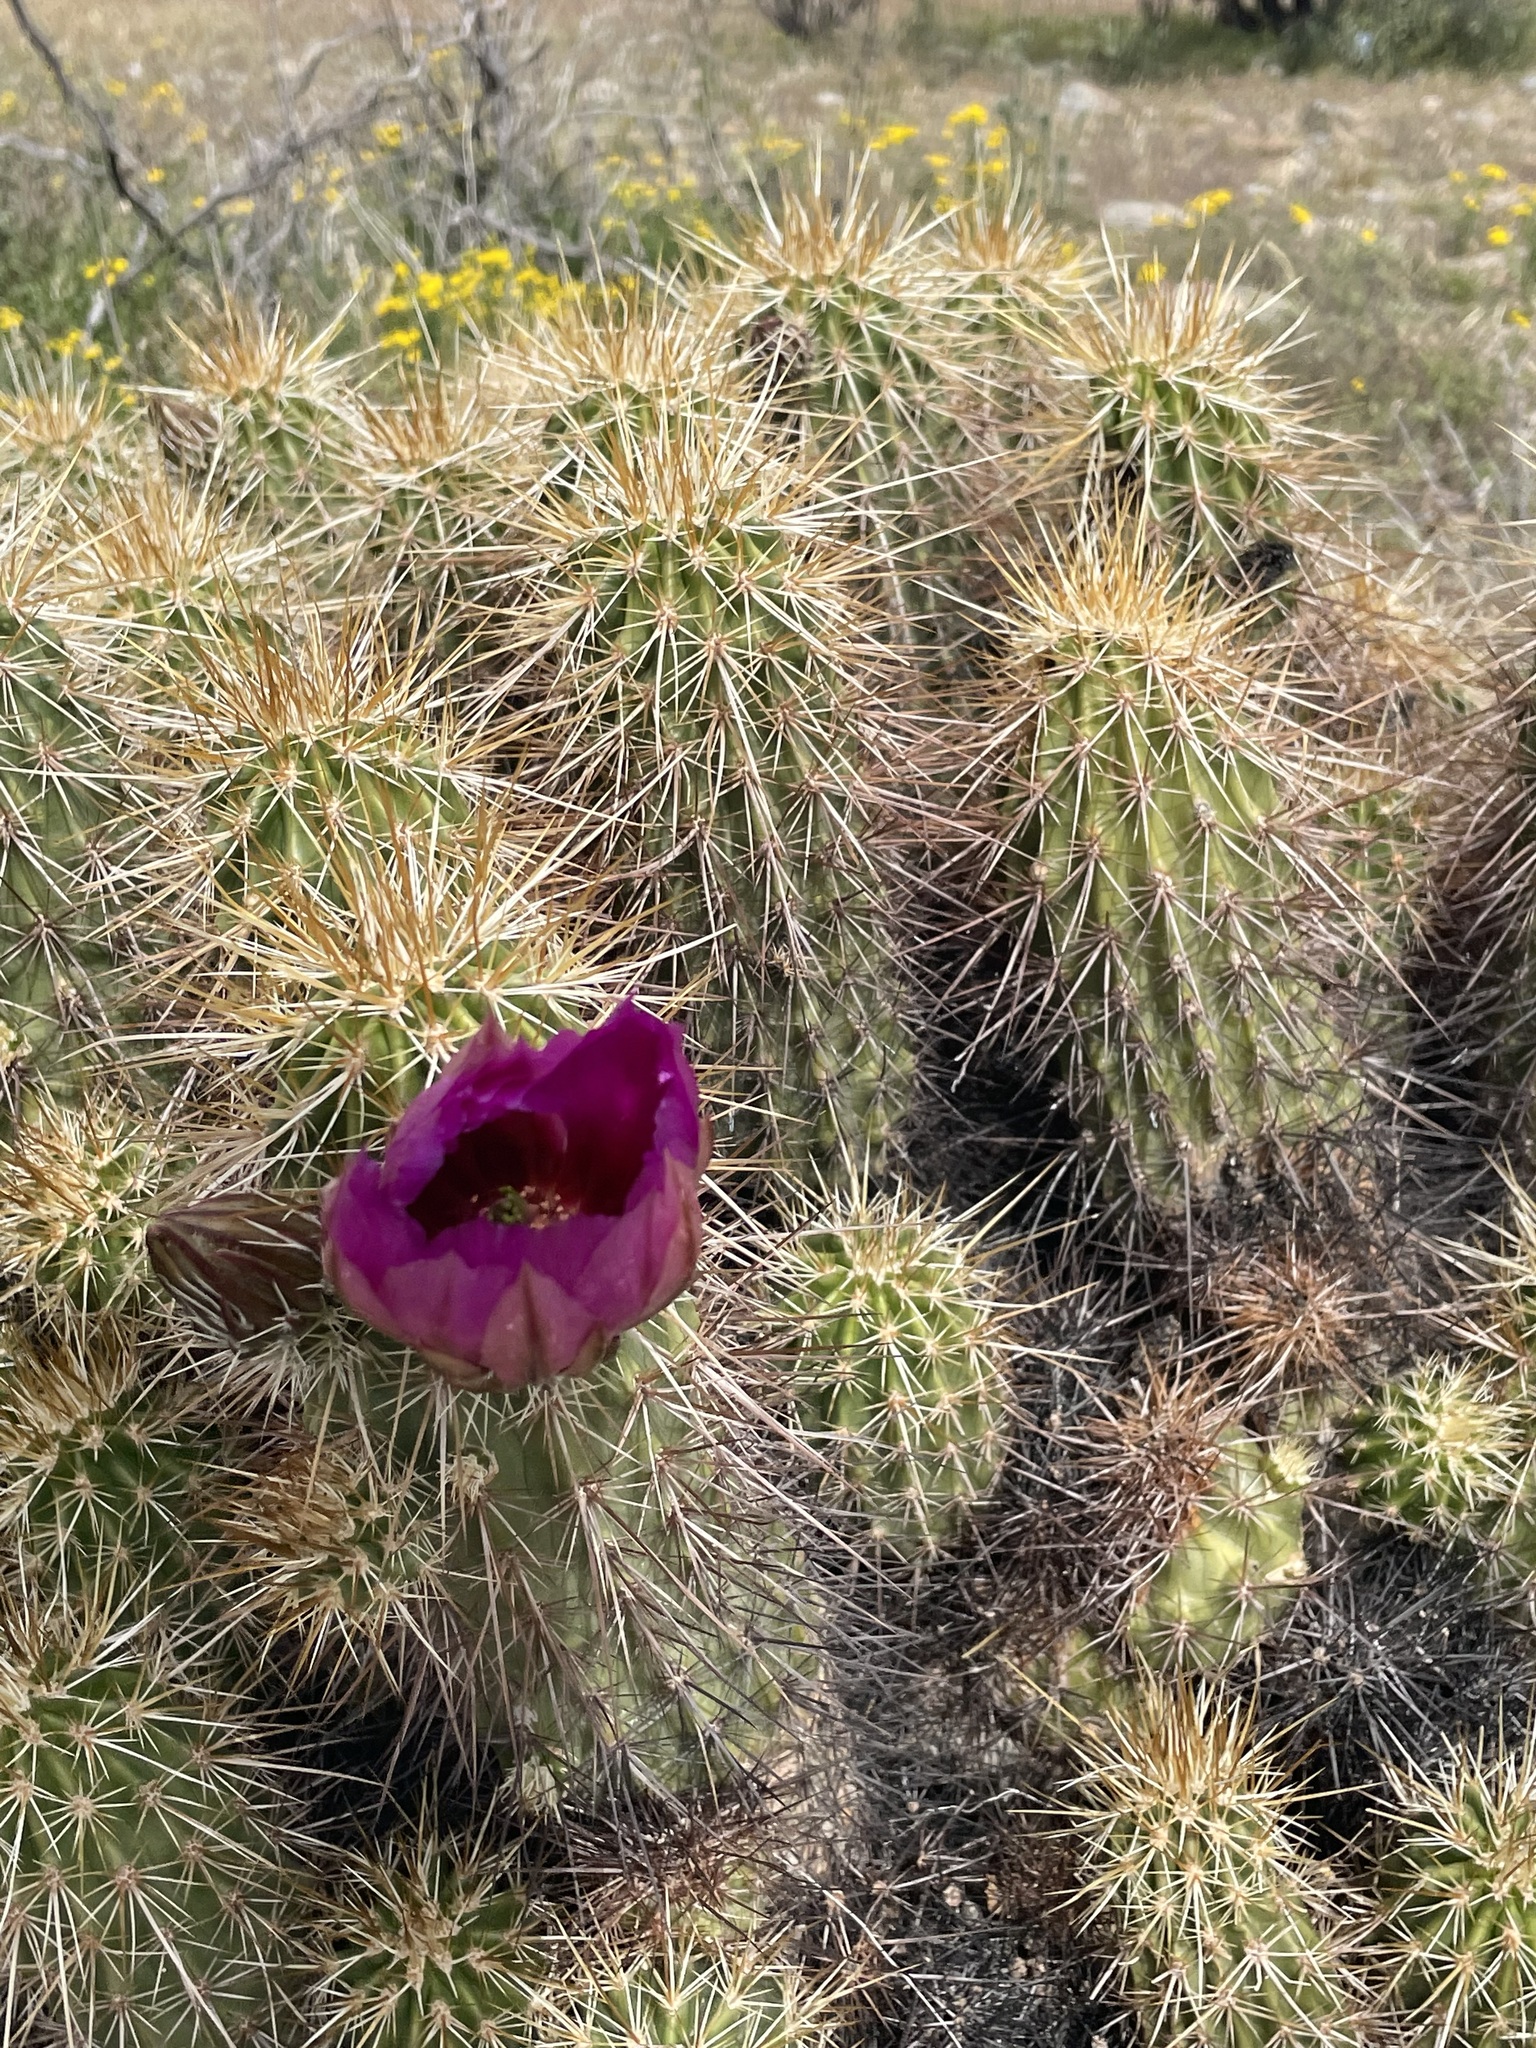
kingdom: Plantae
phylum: Tracheophyta
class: Magnoliopsida
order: Caryophyllales
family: Cactaceae
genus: Echinocereus
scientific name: Echinocereus engelmannii
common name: Engelmann's hedgehog cactus
